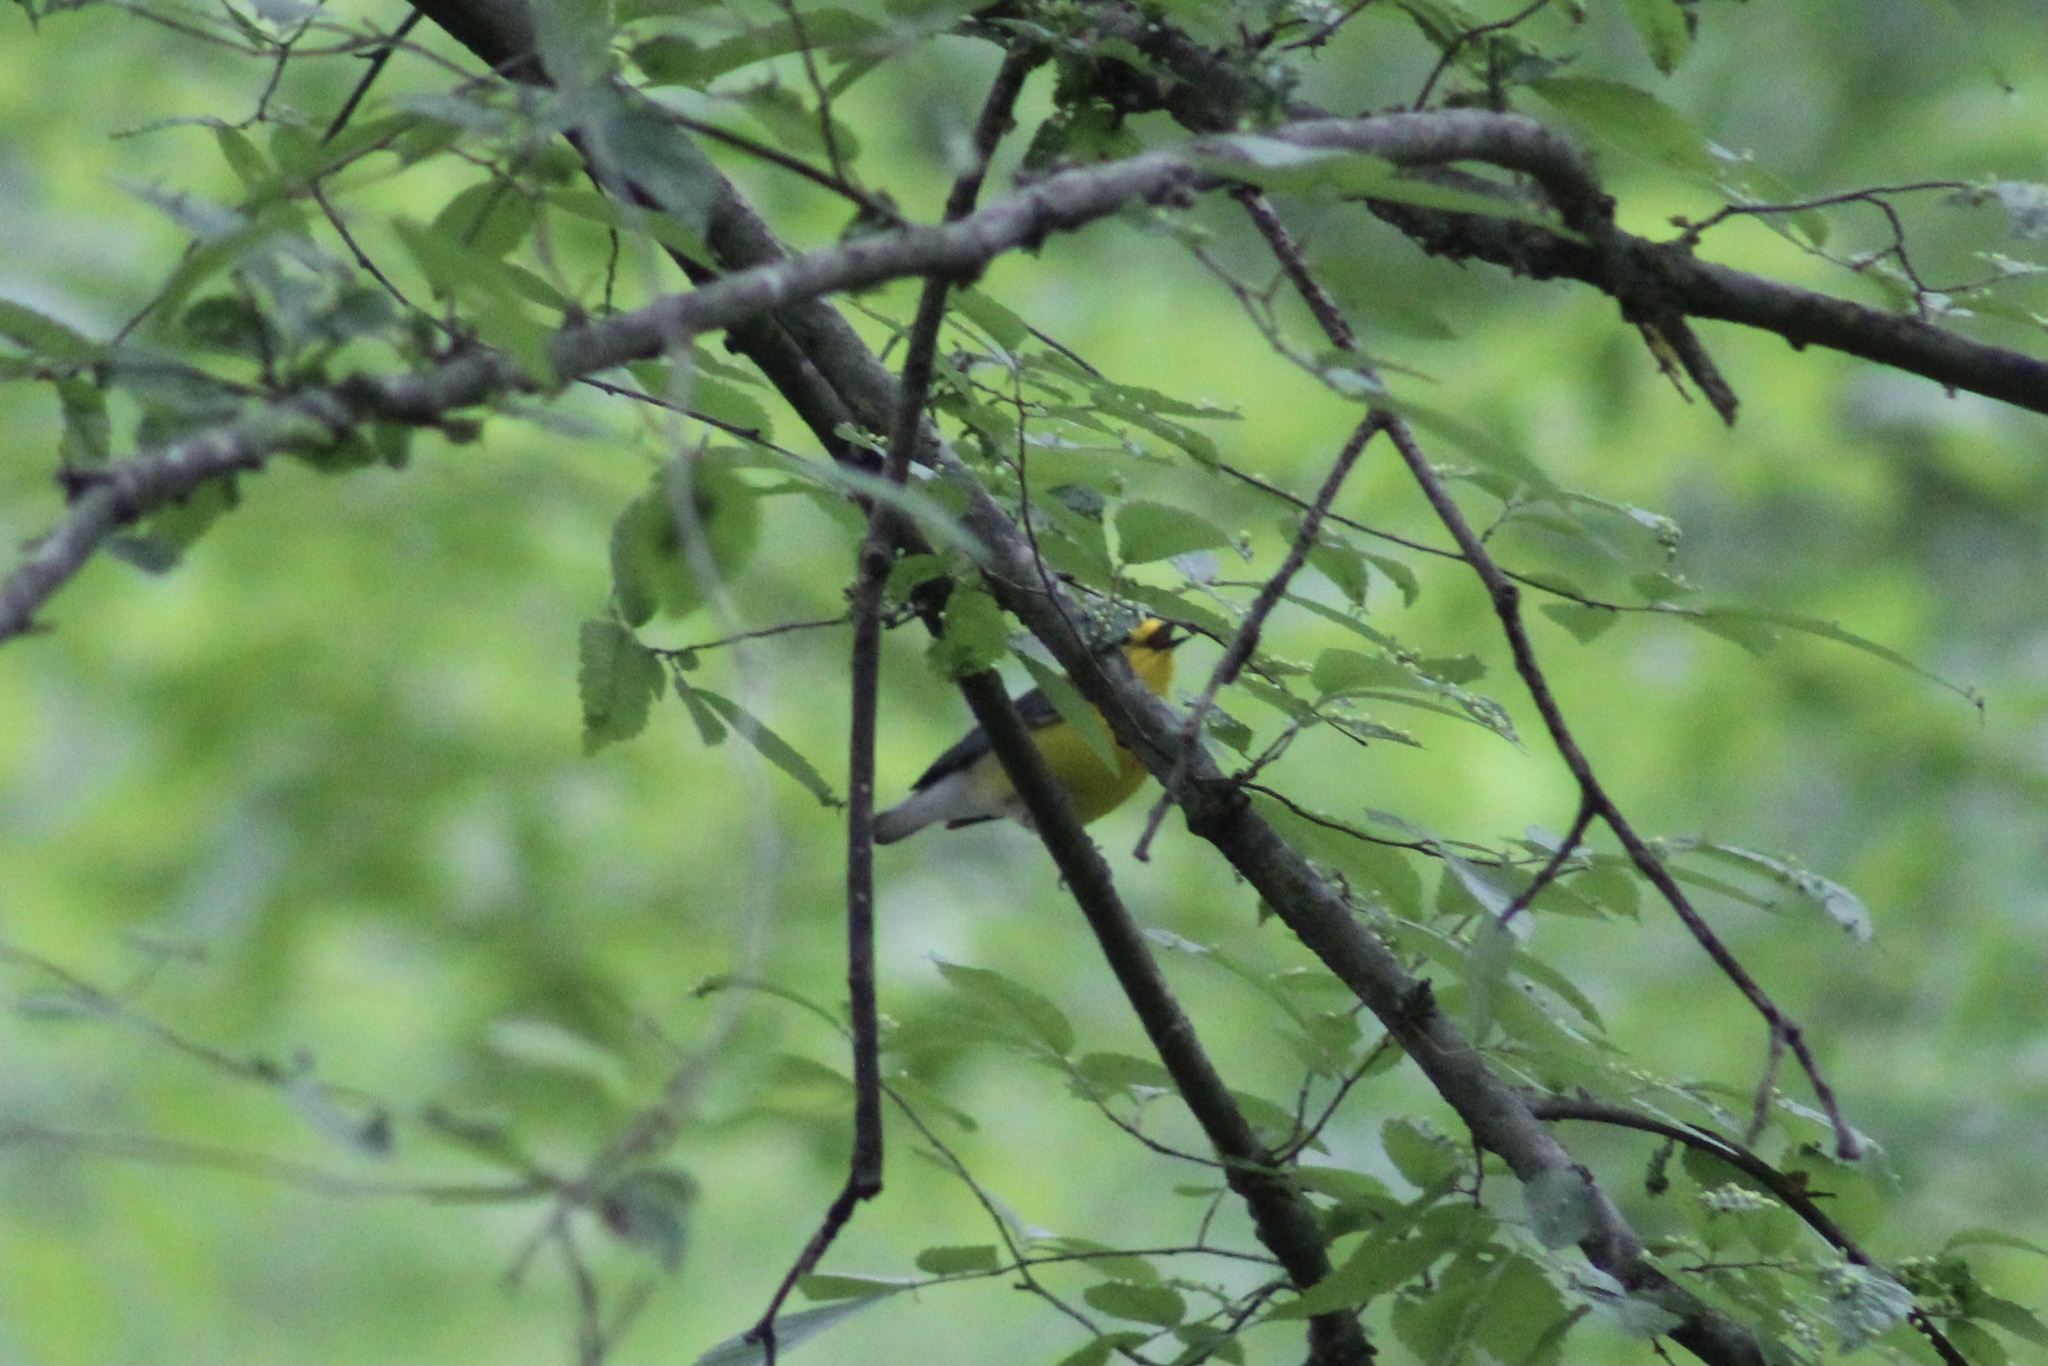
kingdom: Animalia
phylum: Chordata
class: Aves
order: Passeriformes
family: Parulidae
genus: Protonotaria
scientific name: Protonotaria citrea
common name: Prothonotary warbler
